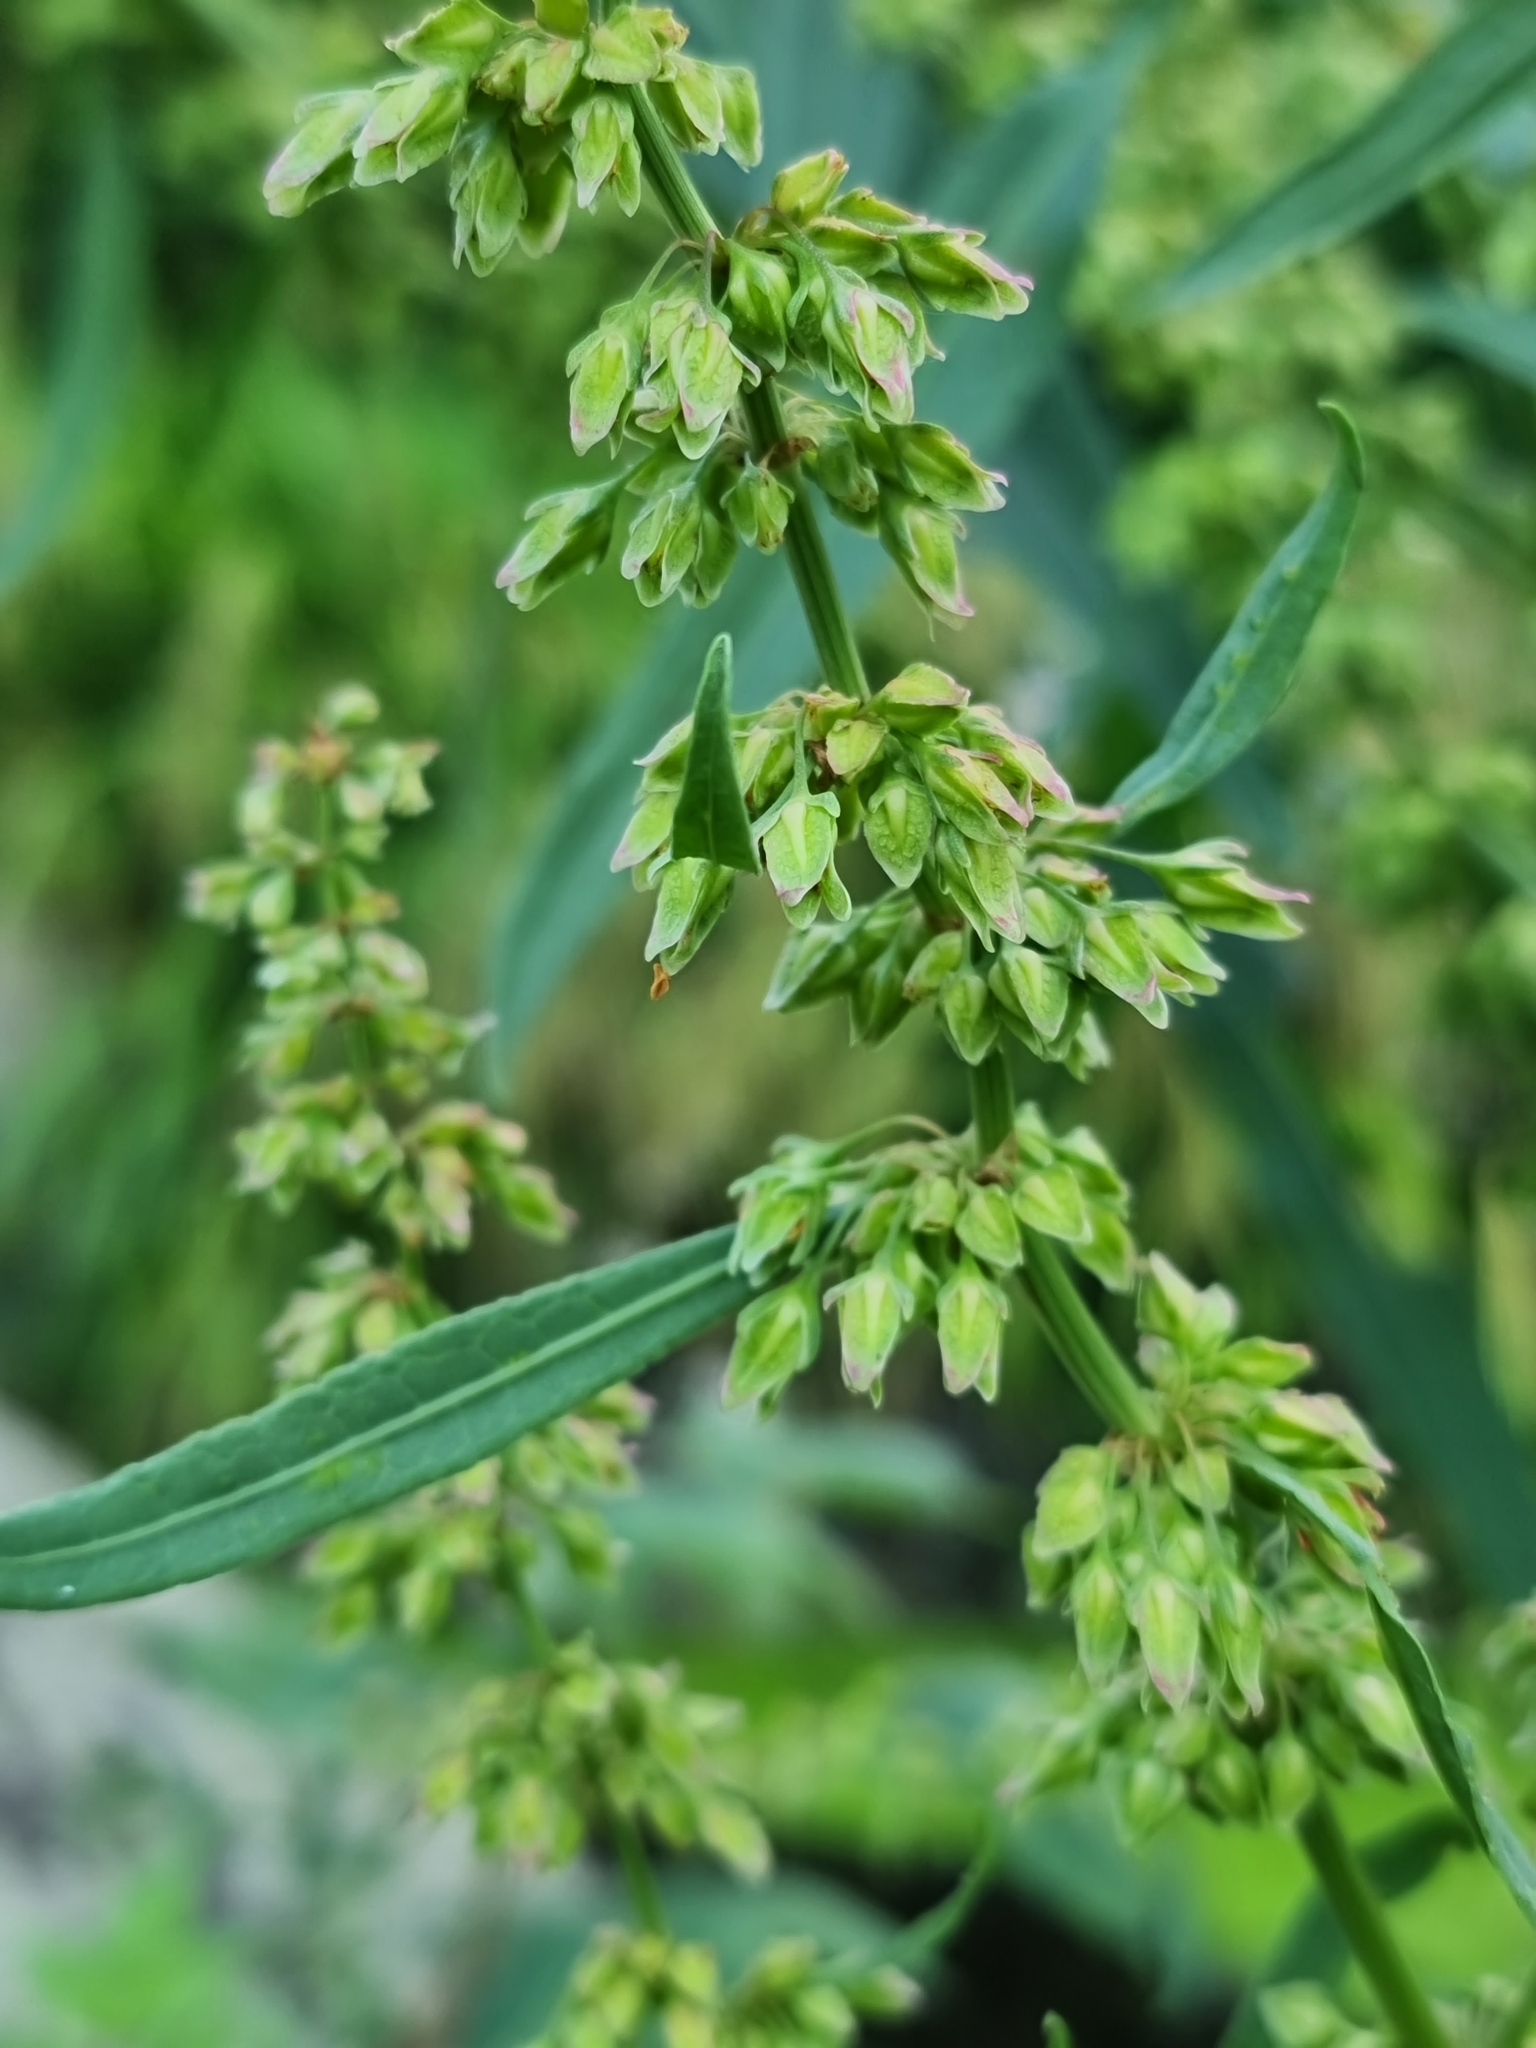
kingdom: Plantae
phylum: Tracheophyta
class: Magnoliopsida
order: Caryophyllales
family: Polygonaceae
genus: Rumex
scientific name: Rumex hydrolapathum
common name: Water dock
